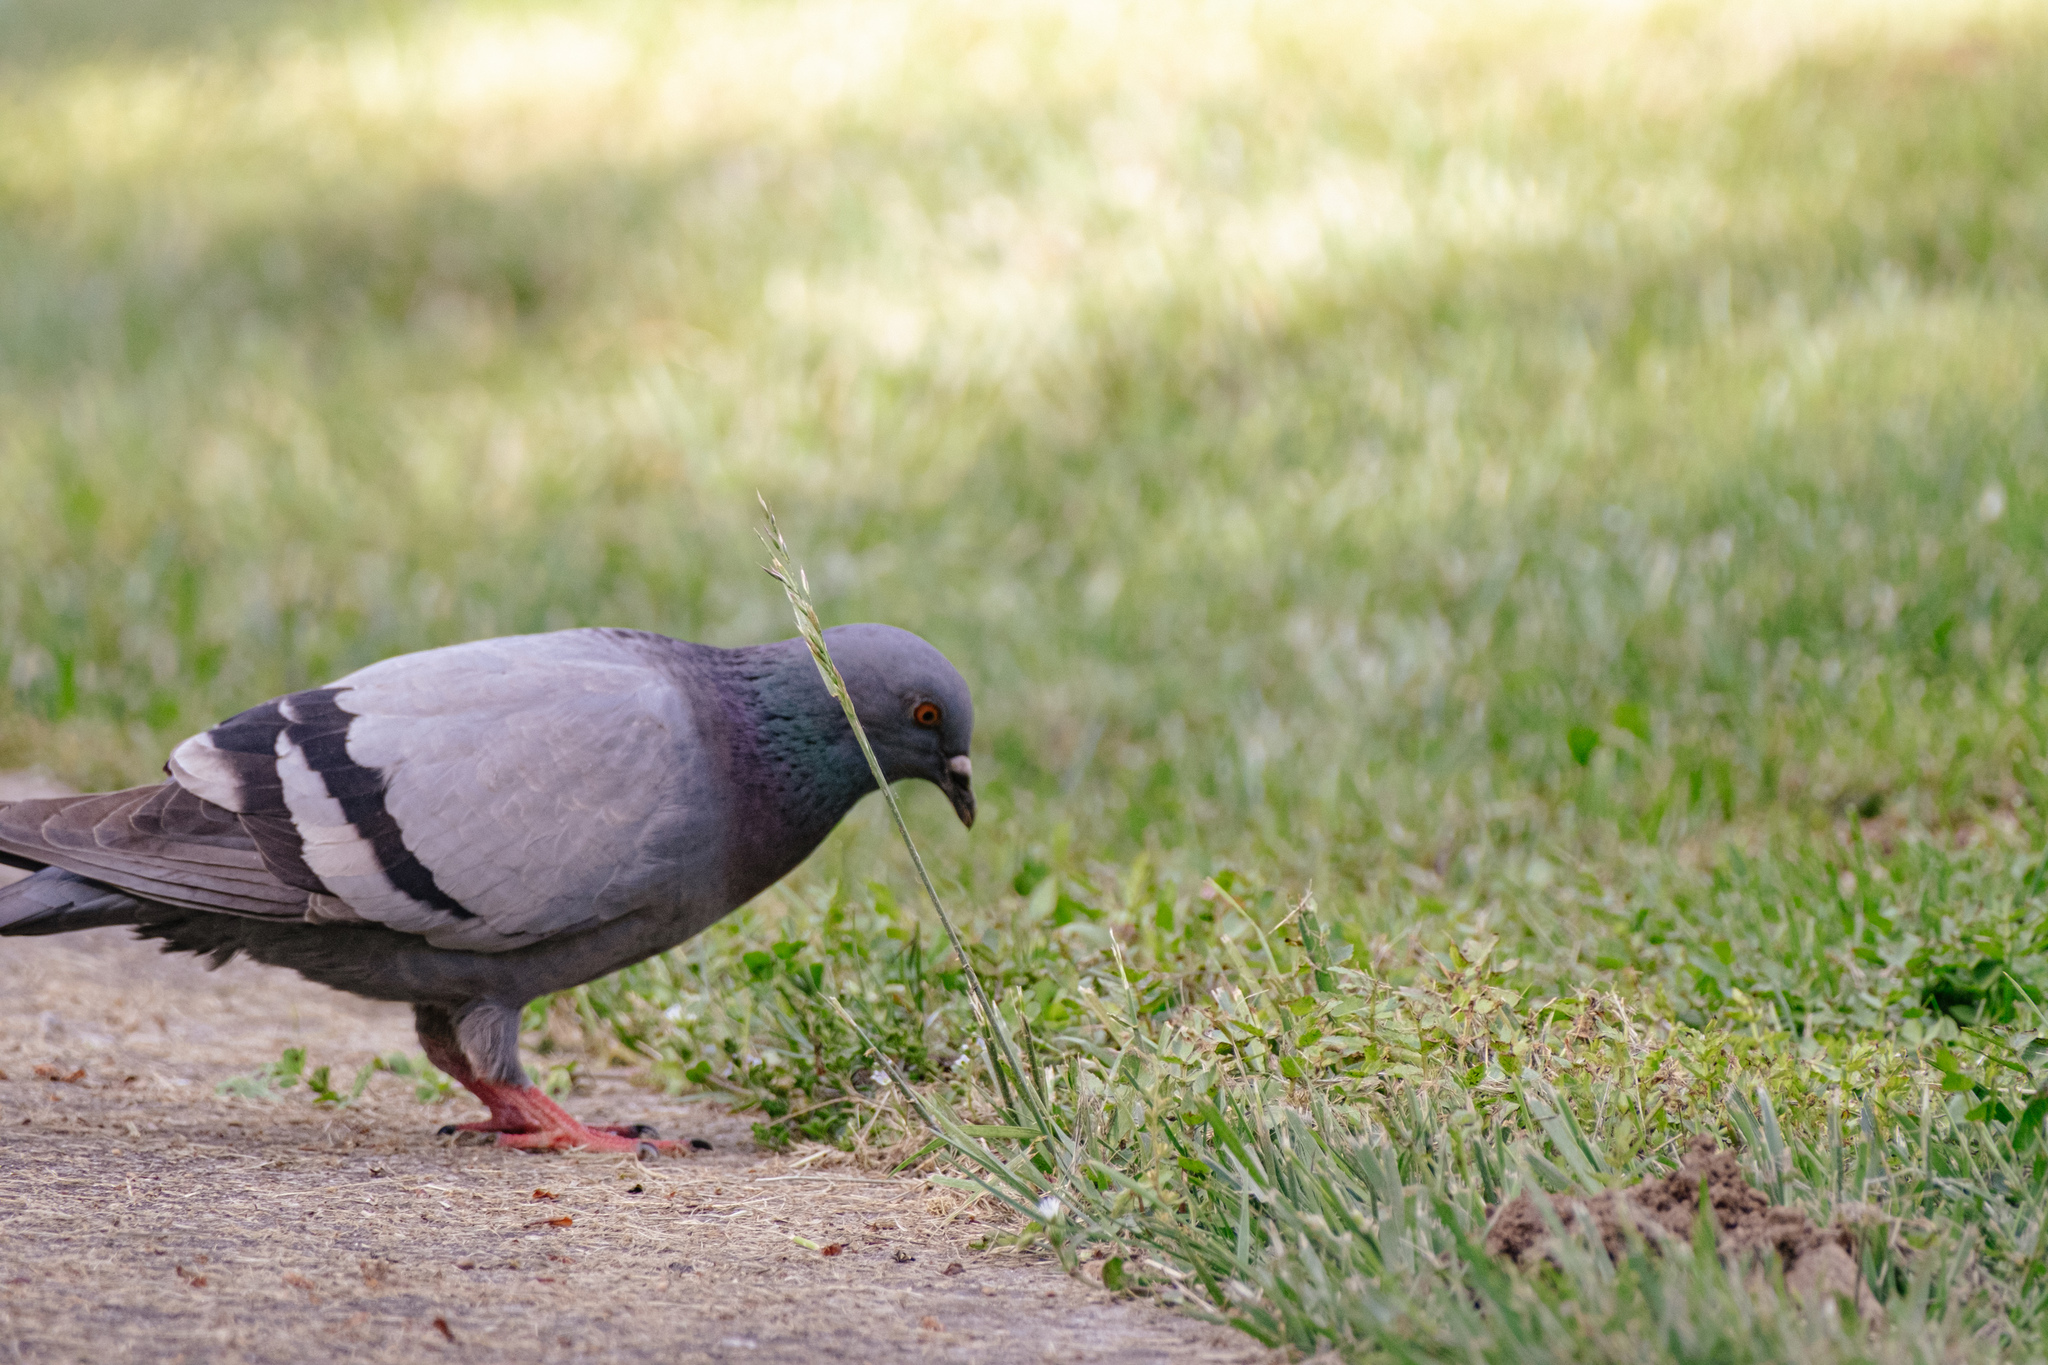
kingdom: Animalia
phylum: Chordata
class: Aves
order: Columbiformes
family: Columbidae
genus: Columba
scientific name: Columba livia
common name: Rock pigeon
